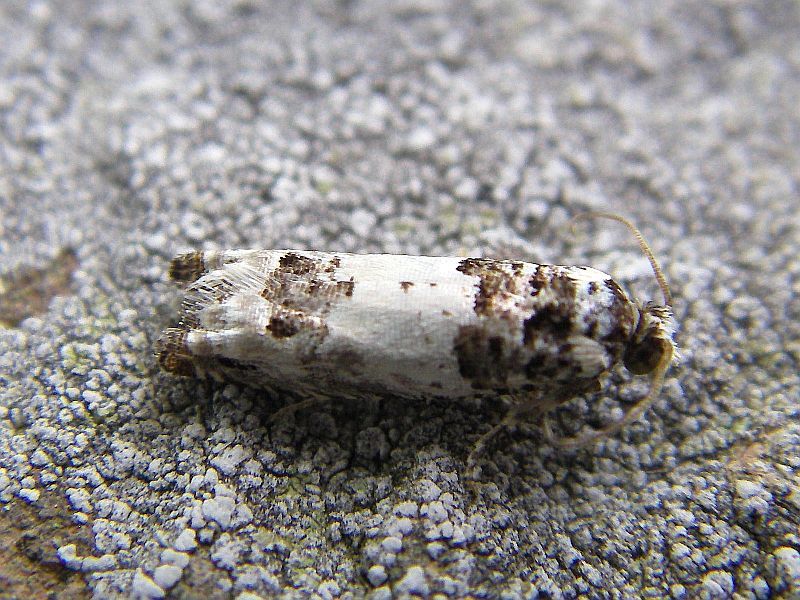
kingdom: Animalia
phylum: Arthropoda
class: Insecta
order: Lepidoptera
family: Tortricidae
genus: Epinotia
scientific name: Epinotia thapsiana
